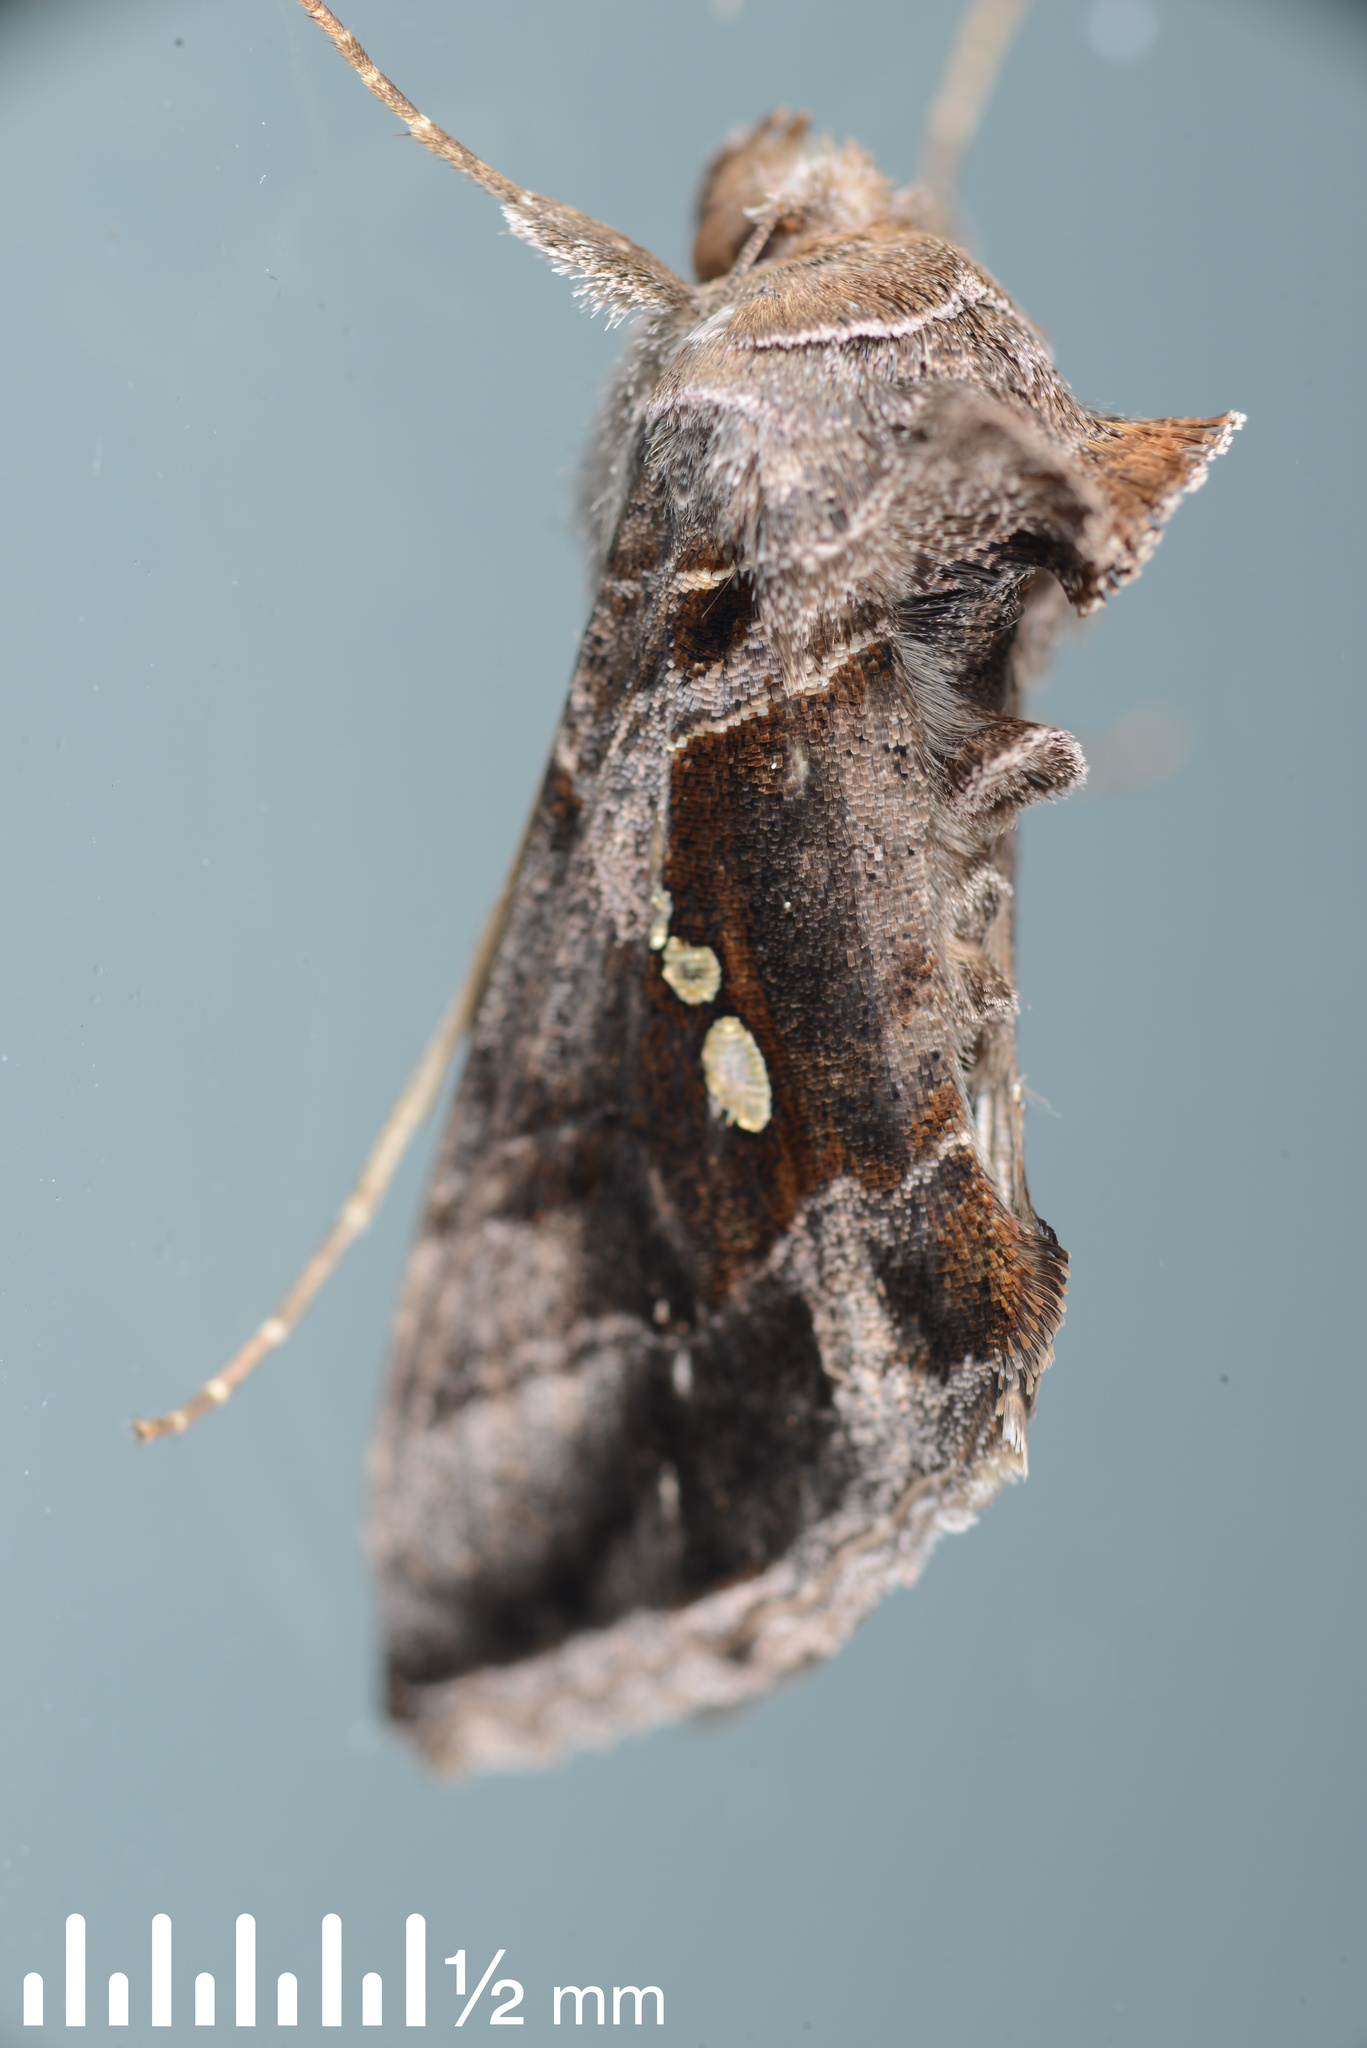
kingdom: Animalia
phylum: Arthropoda
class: Insecta
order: Lepidoptera
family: Noctuidae
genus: Chrysodeixis
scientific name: Chrysodeixis eriosoma
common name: Green garden looper
